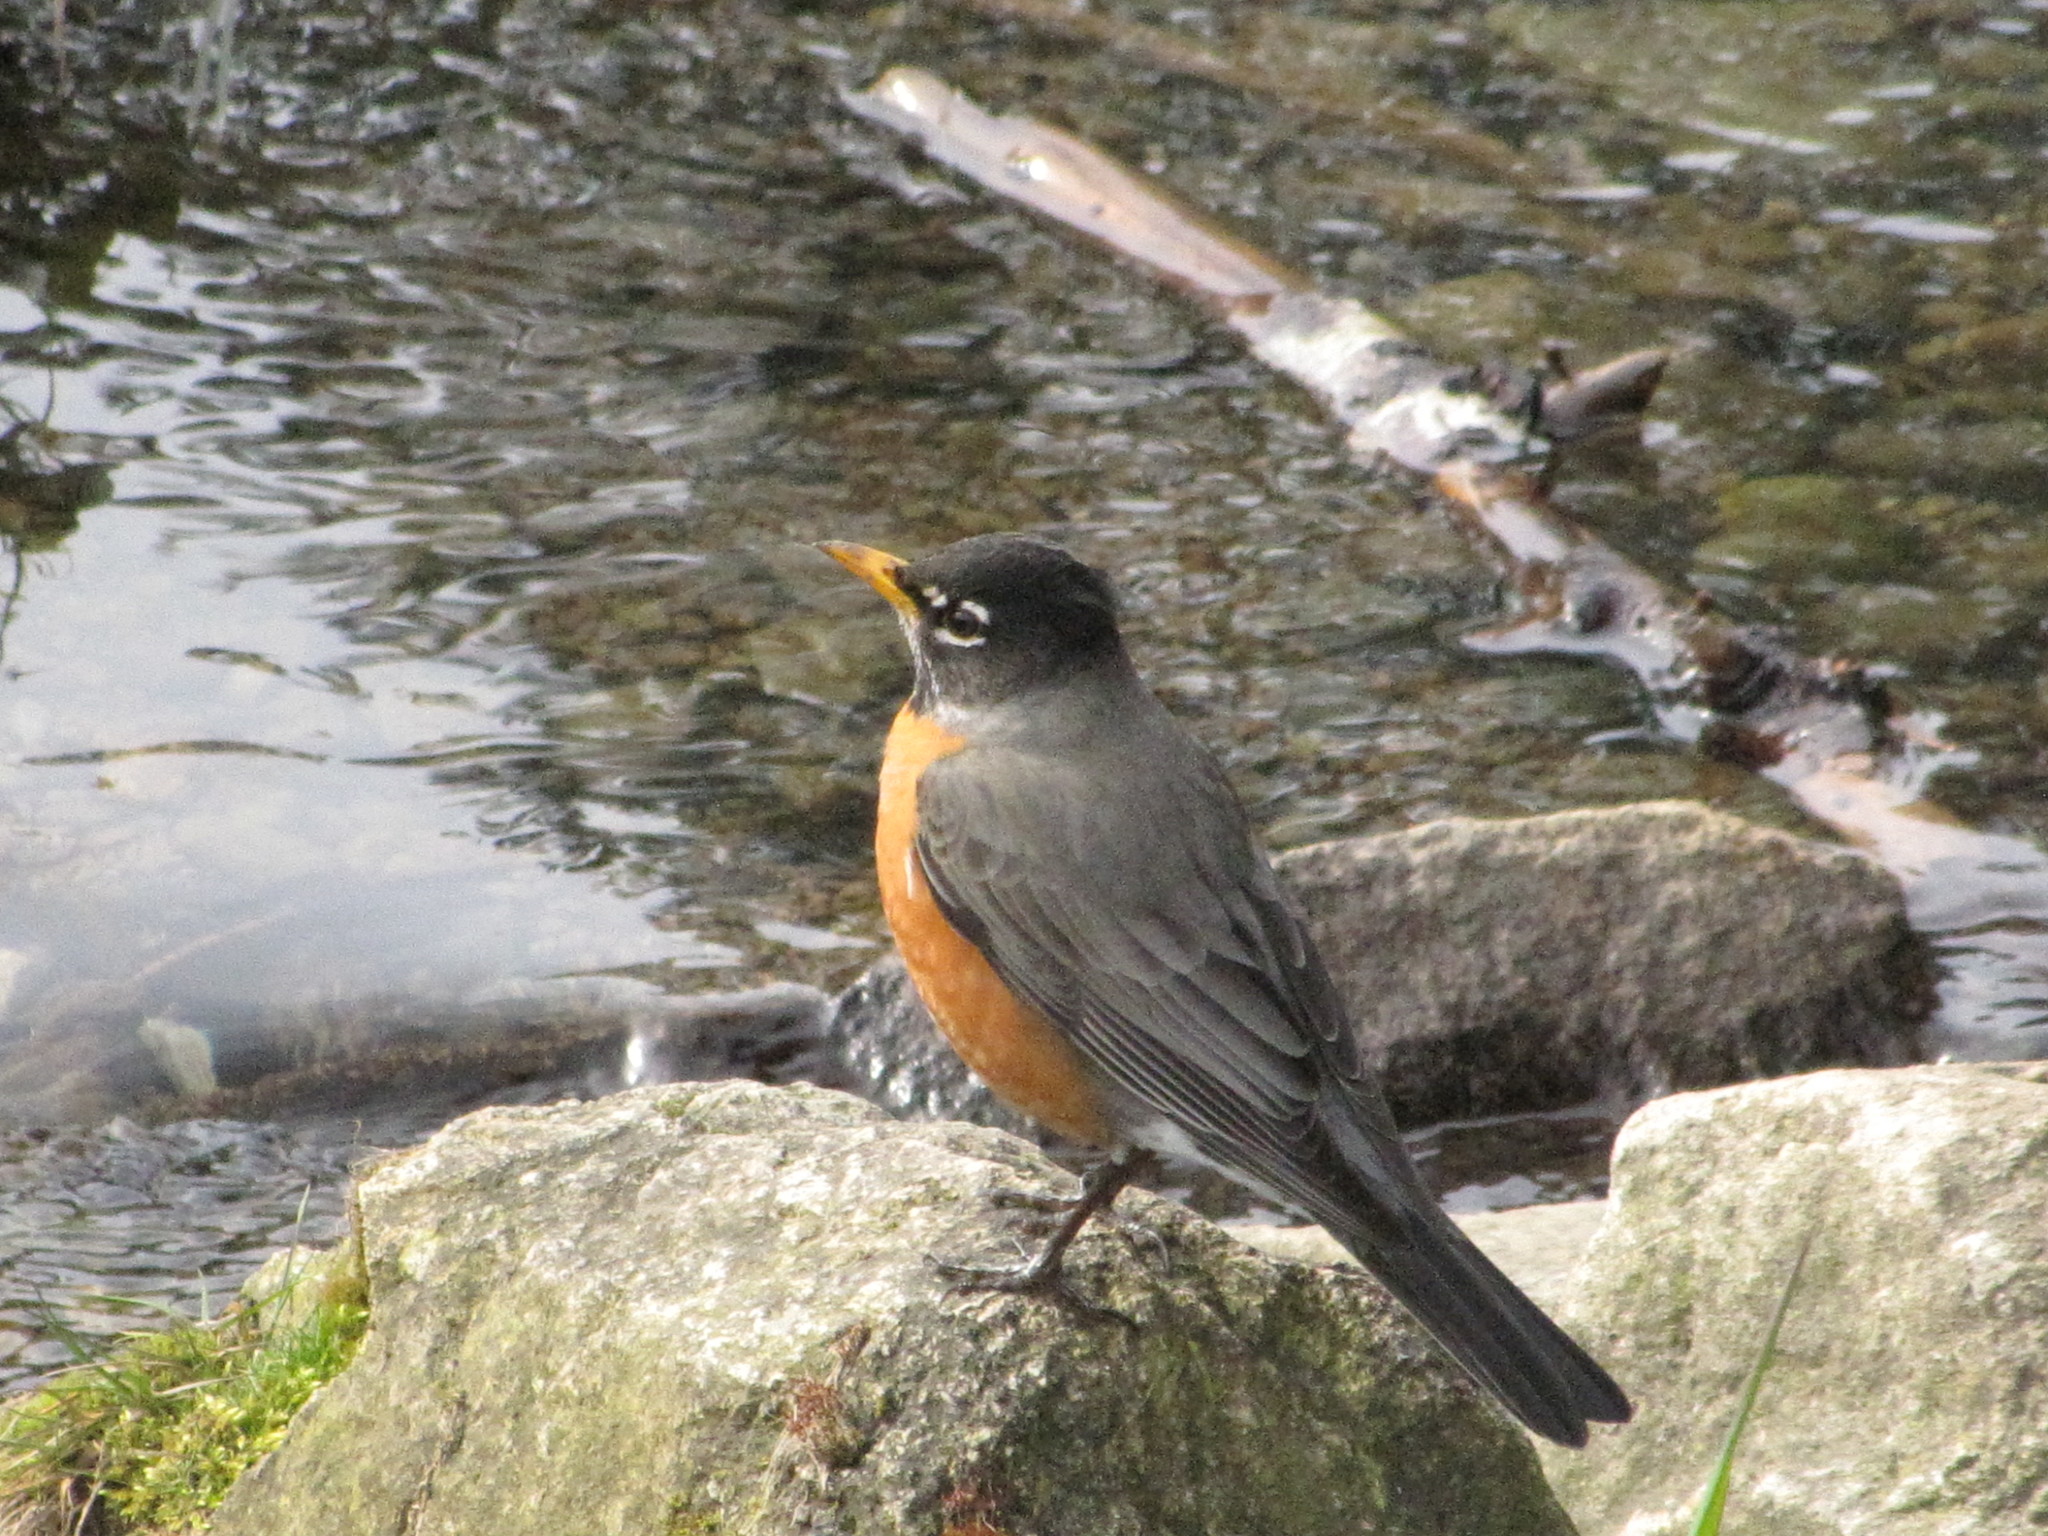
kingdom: Animalia
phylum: Chordata
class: Aves
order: Passeriformes
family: Turdidae
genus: Turdus
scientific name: Turdus migratorius
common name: American robin
